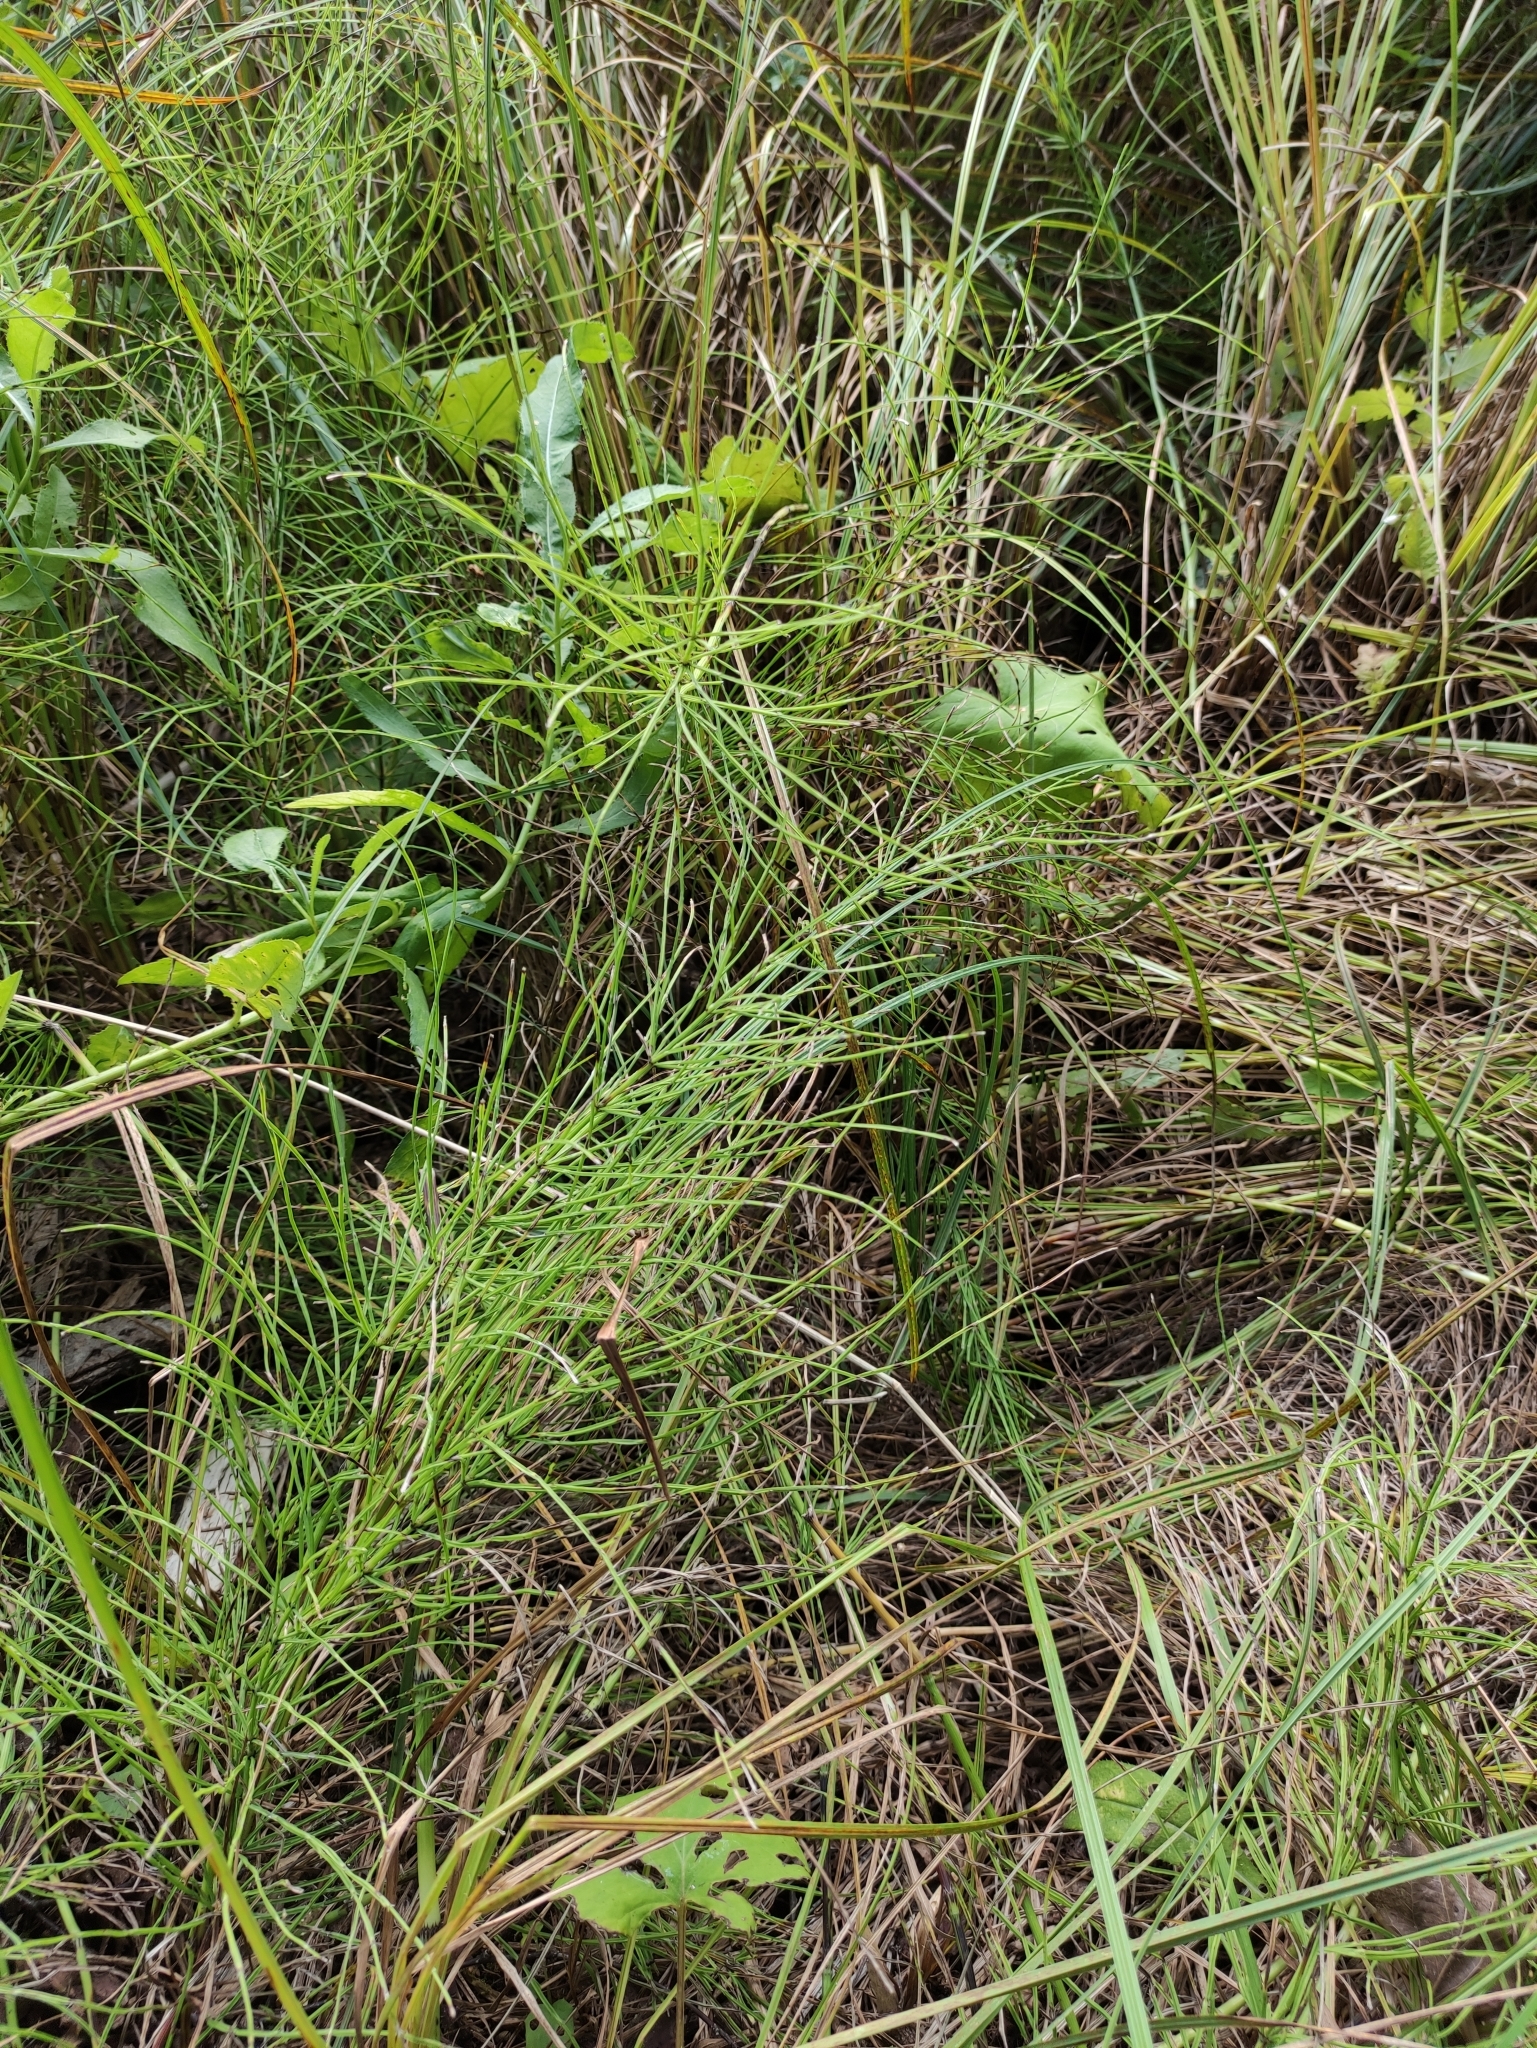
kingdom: Plantae
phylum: Tracheophyta
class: Polypodiopsida
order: Equisetales
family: Equisetaceae
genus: Equisetum
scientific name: Equisetum arvense
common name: Field horsetail
